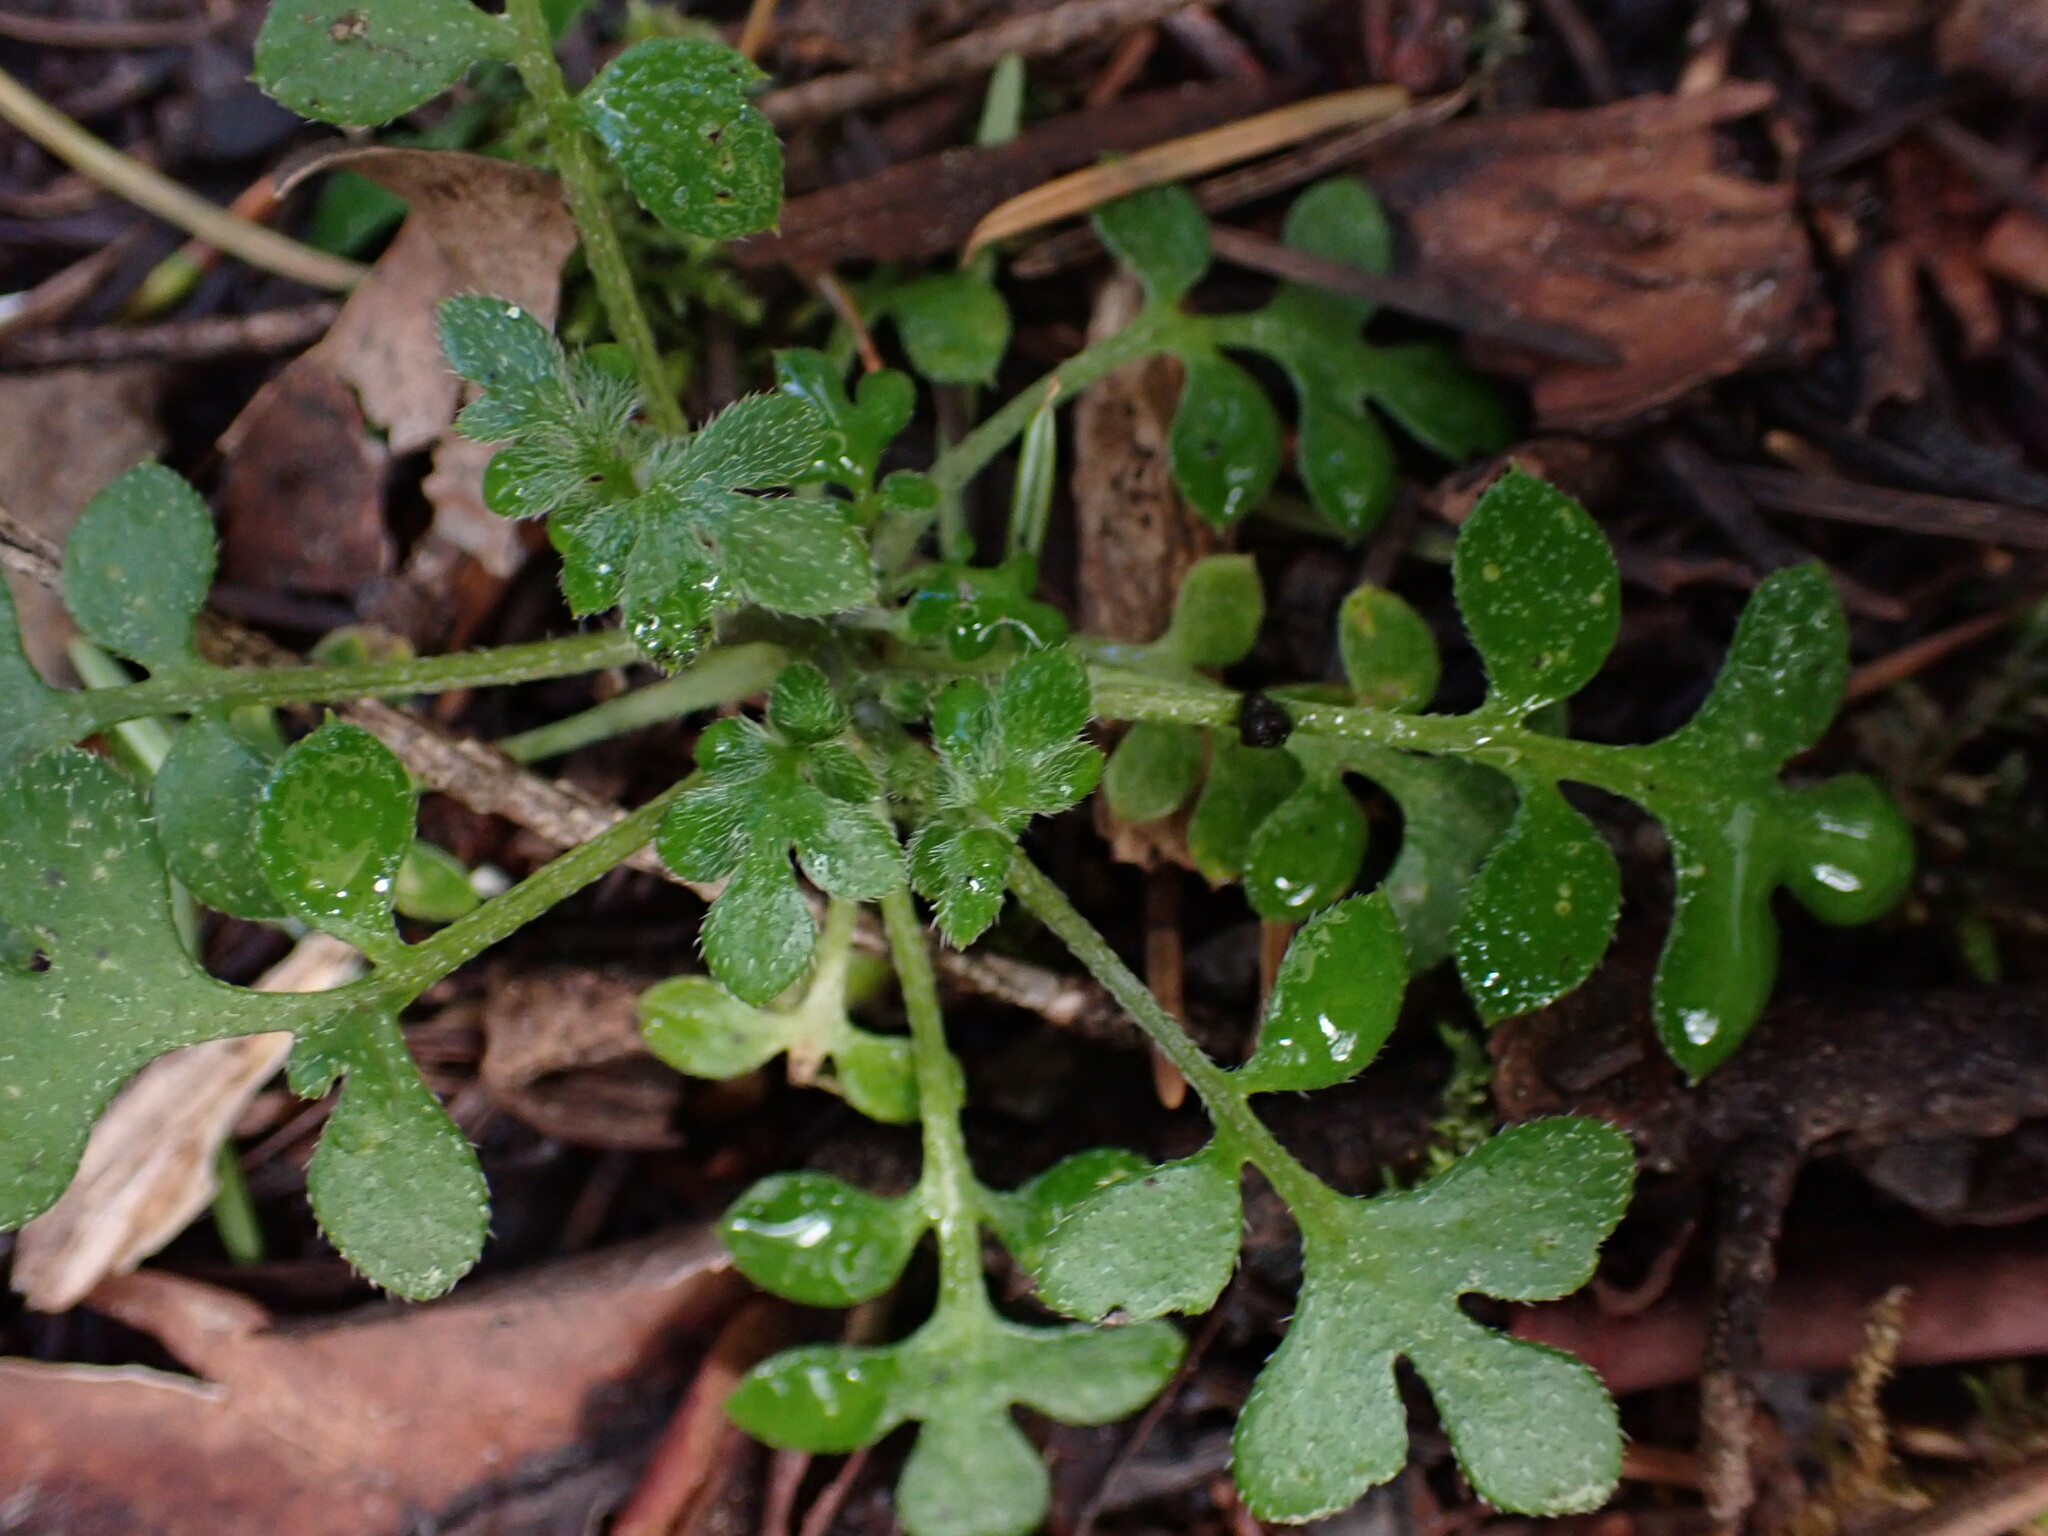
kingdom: Plantae
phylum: Tracheophyta
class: Magnoliopsida
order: Boraginales
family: Hydrophyllaceae
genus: Nemophila
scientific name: Nemophila parviflora
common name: Small-flowered baby-blue-eyes
